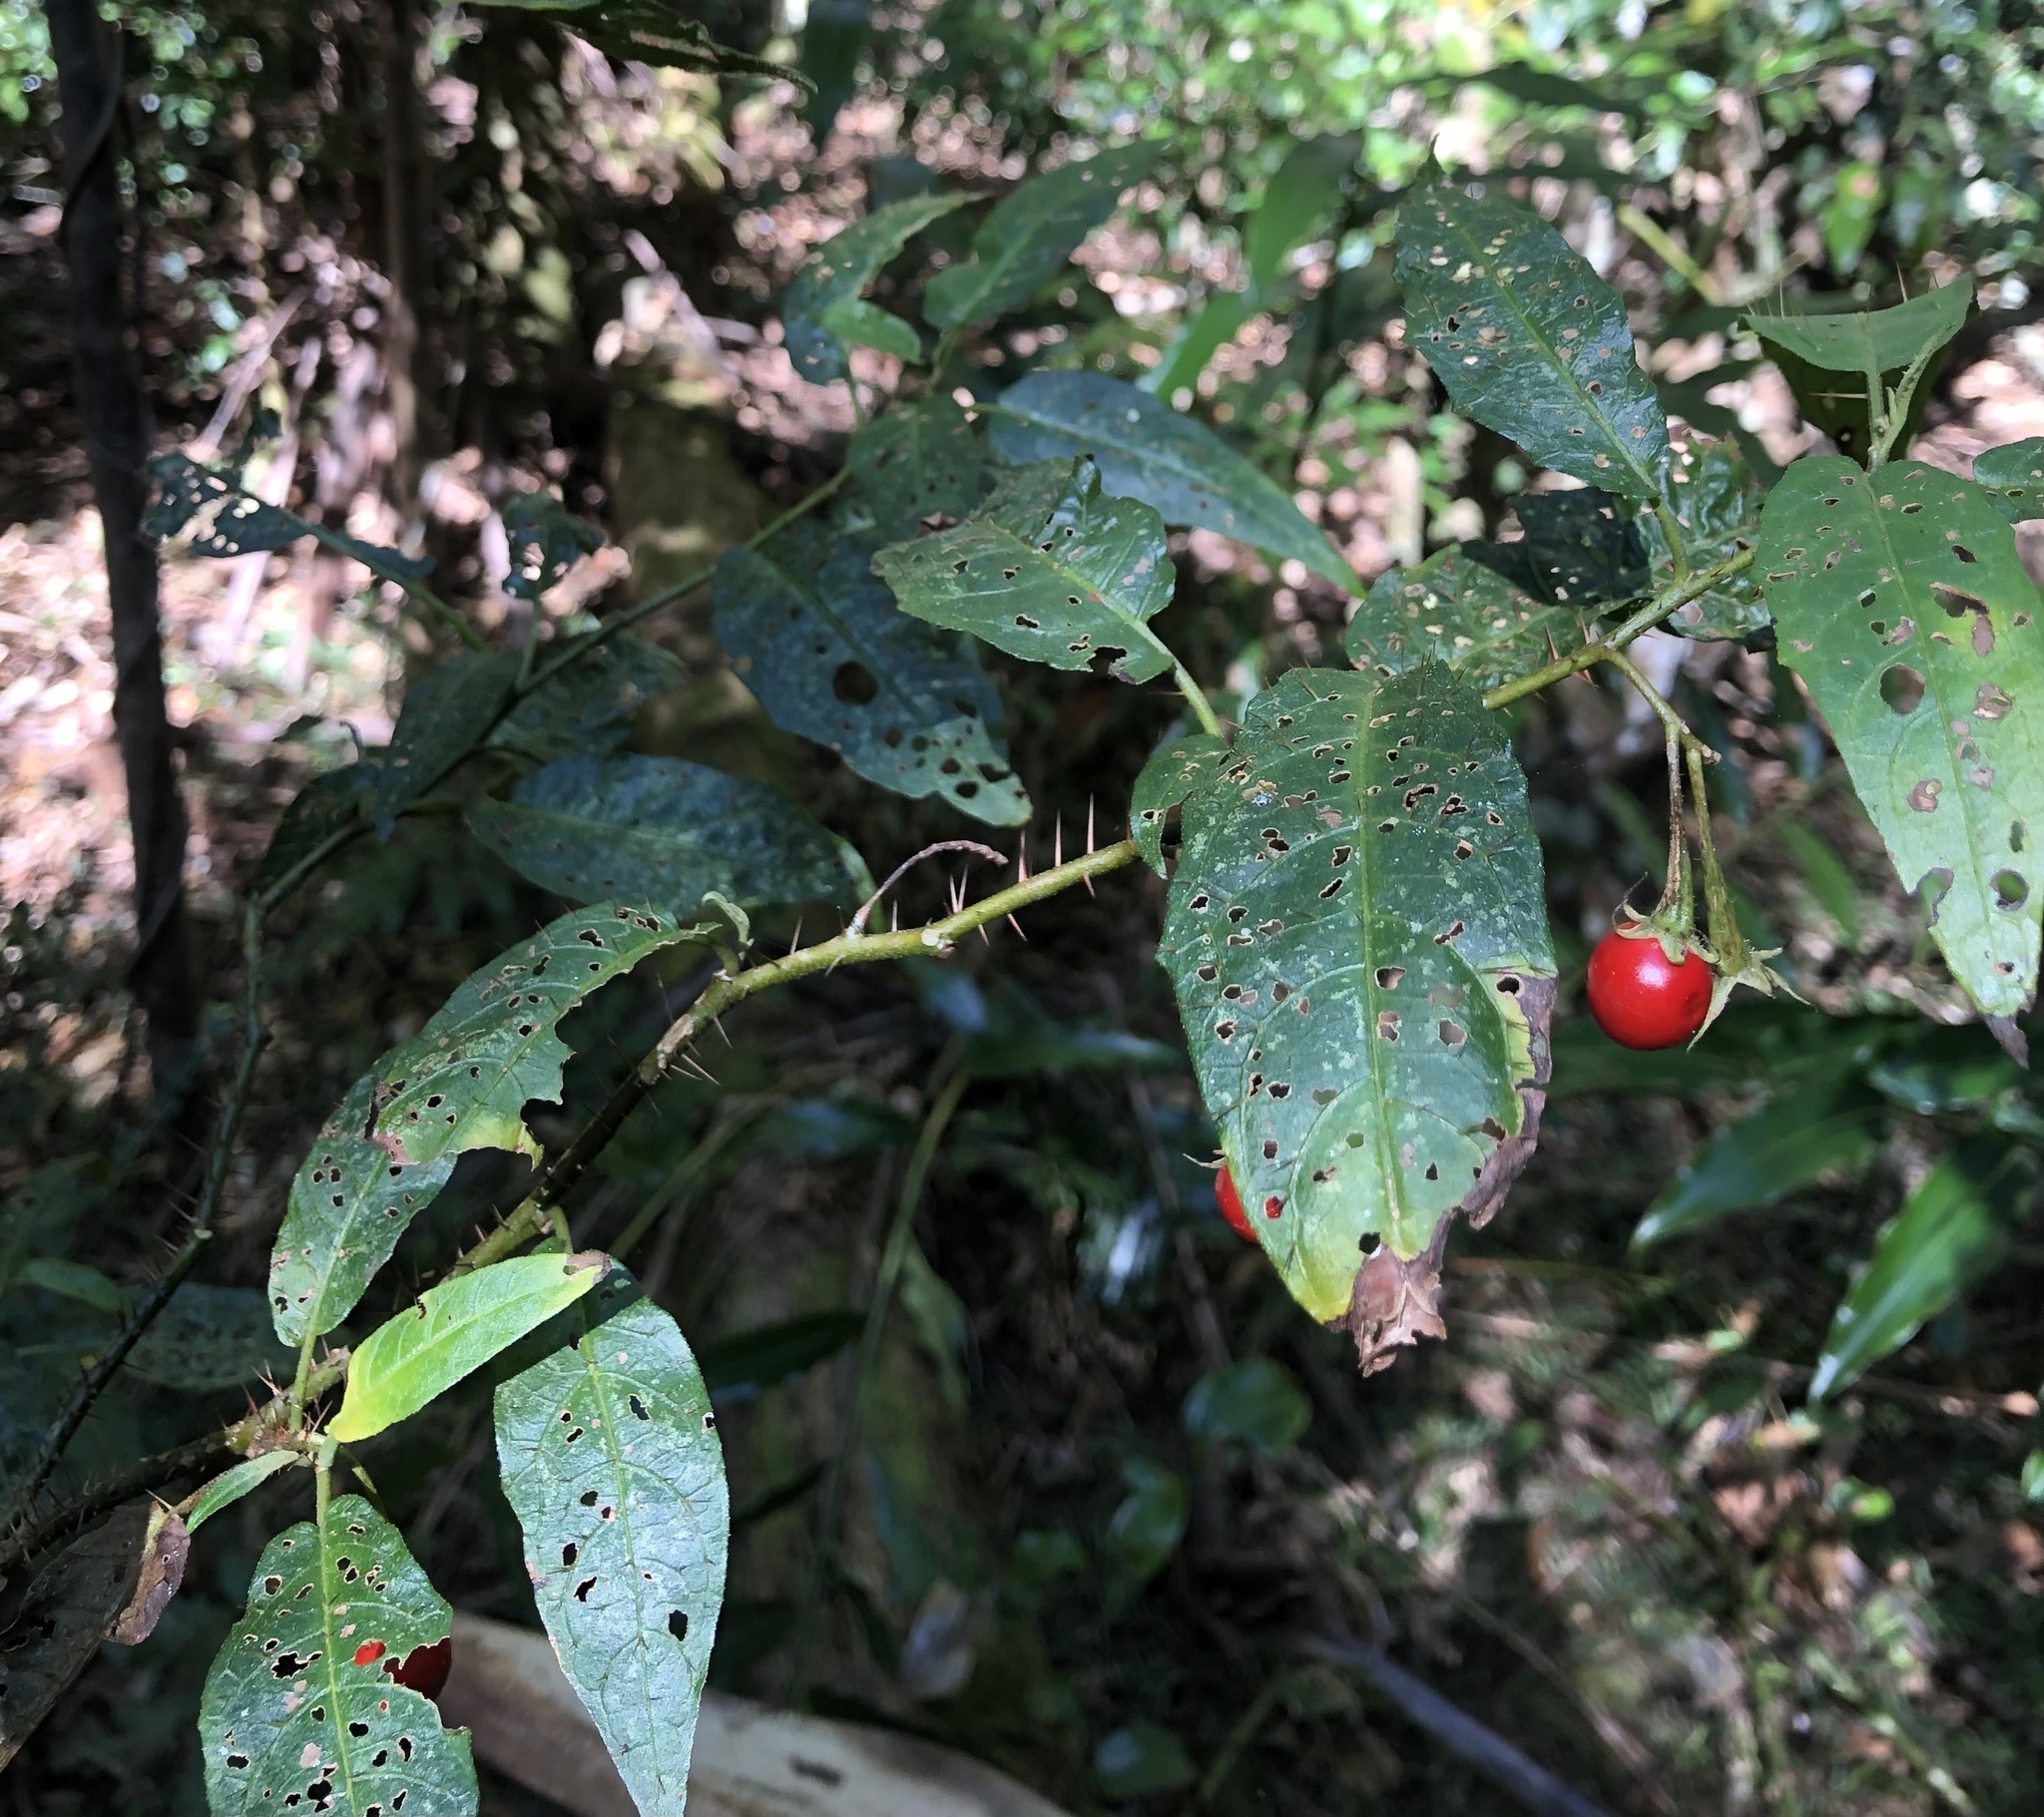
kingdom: Plantae
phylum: Tracheophyta
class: Magnoliopsida
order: Solanales
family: Solanaceae
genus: Solanum
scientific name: Solanum inaequilaterum
